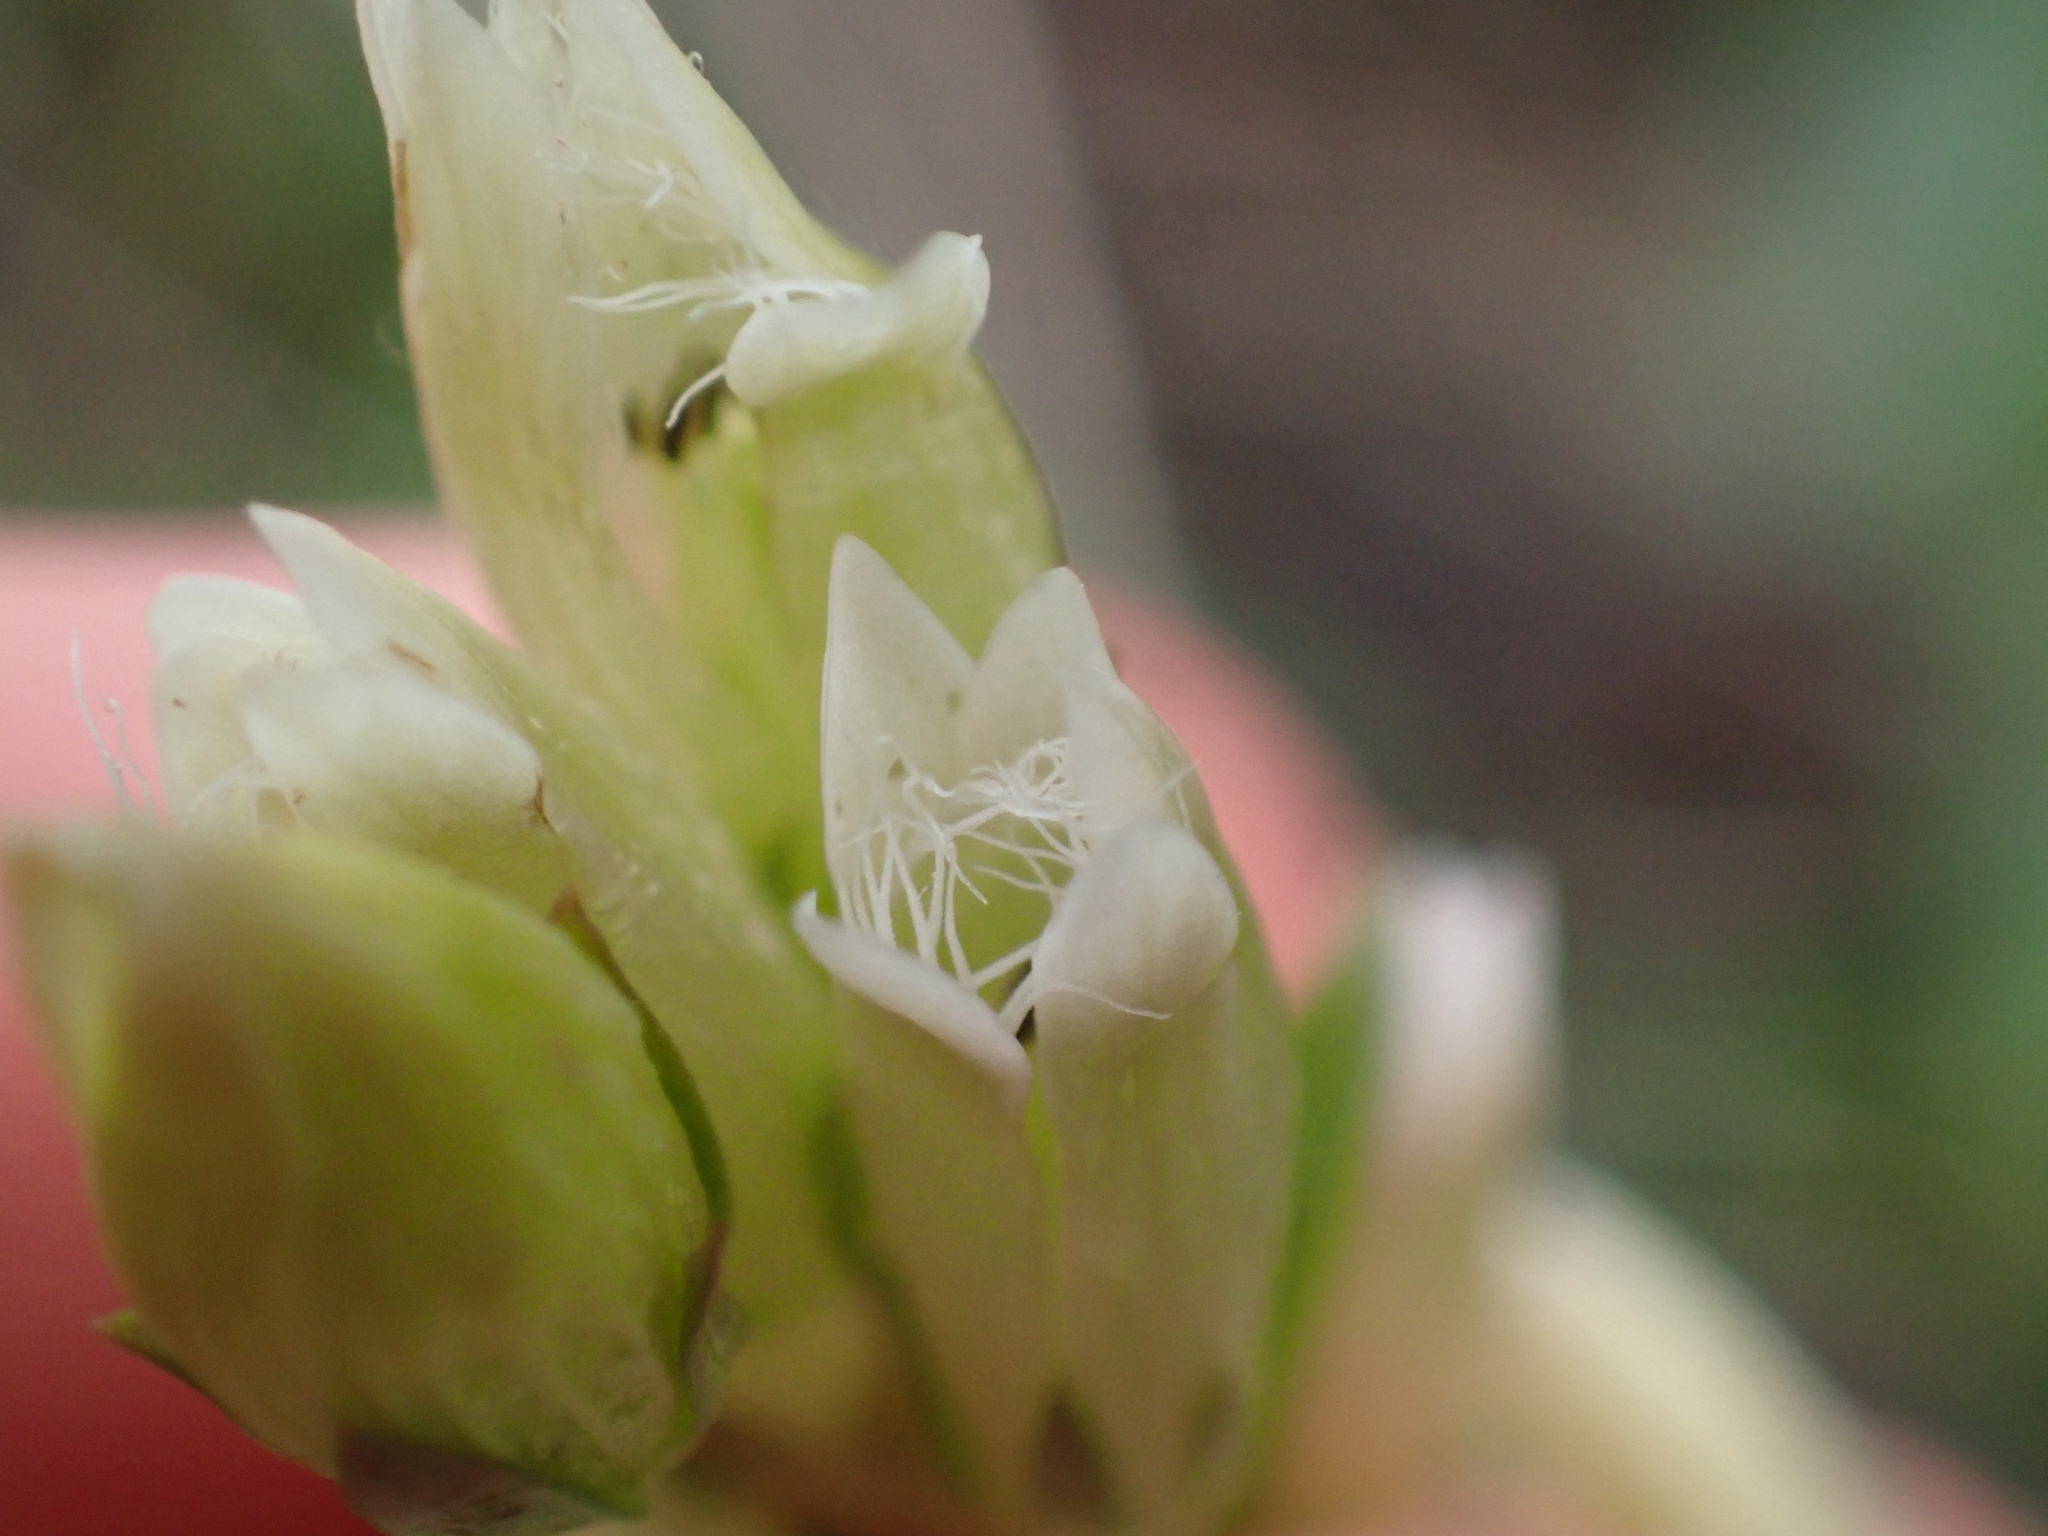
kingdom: Plantae
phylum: Tracheophyta
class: Magnoliopsida
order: Gentianales
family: Gentianaceae
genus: Gentianella
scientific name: Gentianella amarella
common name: Autumn gentian
